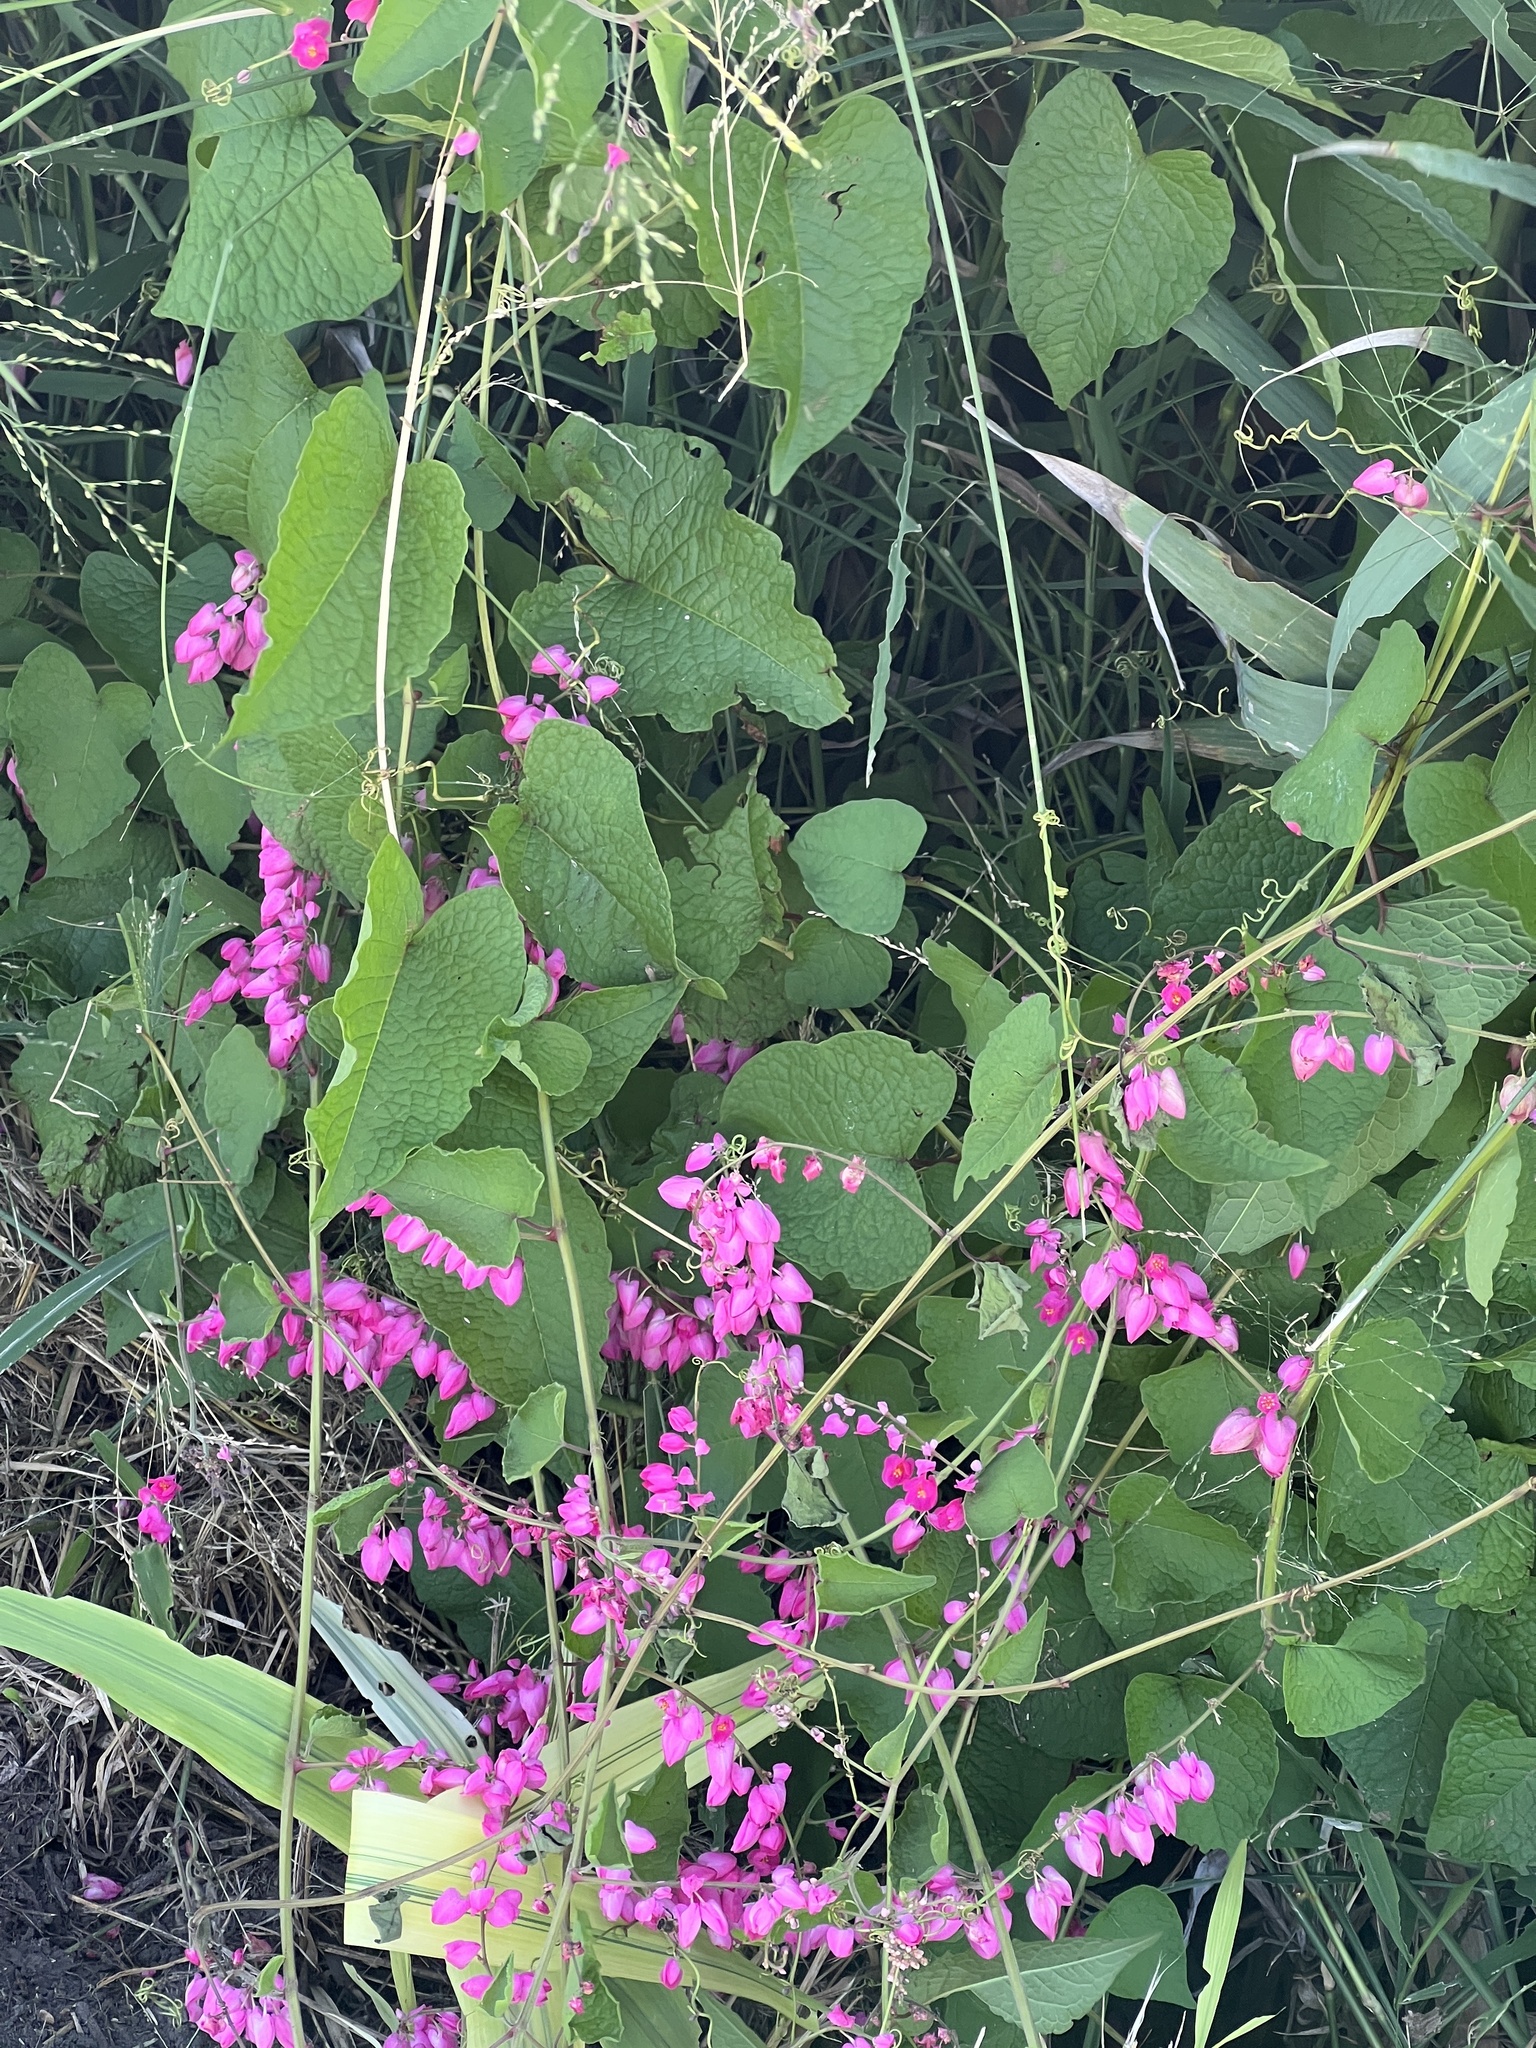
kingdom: Plantae
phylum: Tracheophyta
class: Magnoliopsida
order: Caryophyllales
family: Polygonaceae
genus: Antigonon
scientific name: Antigonon leptopus
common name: Coral vine
